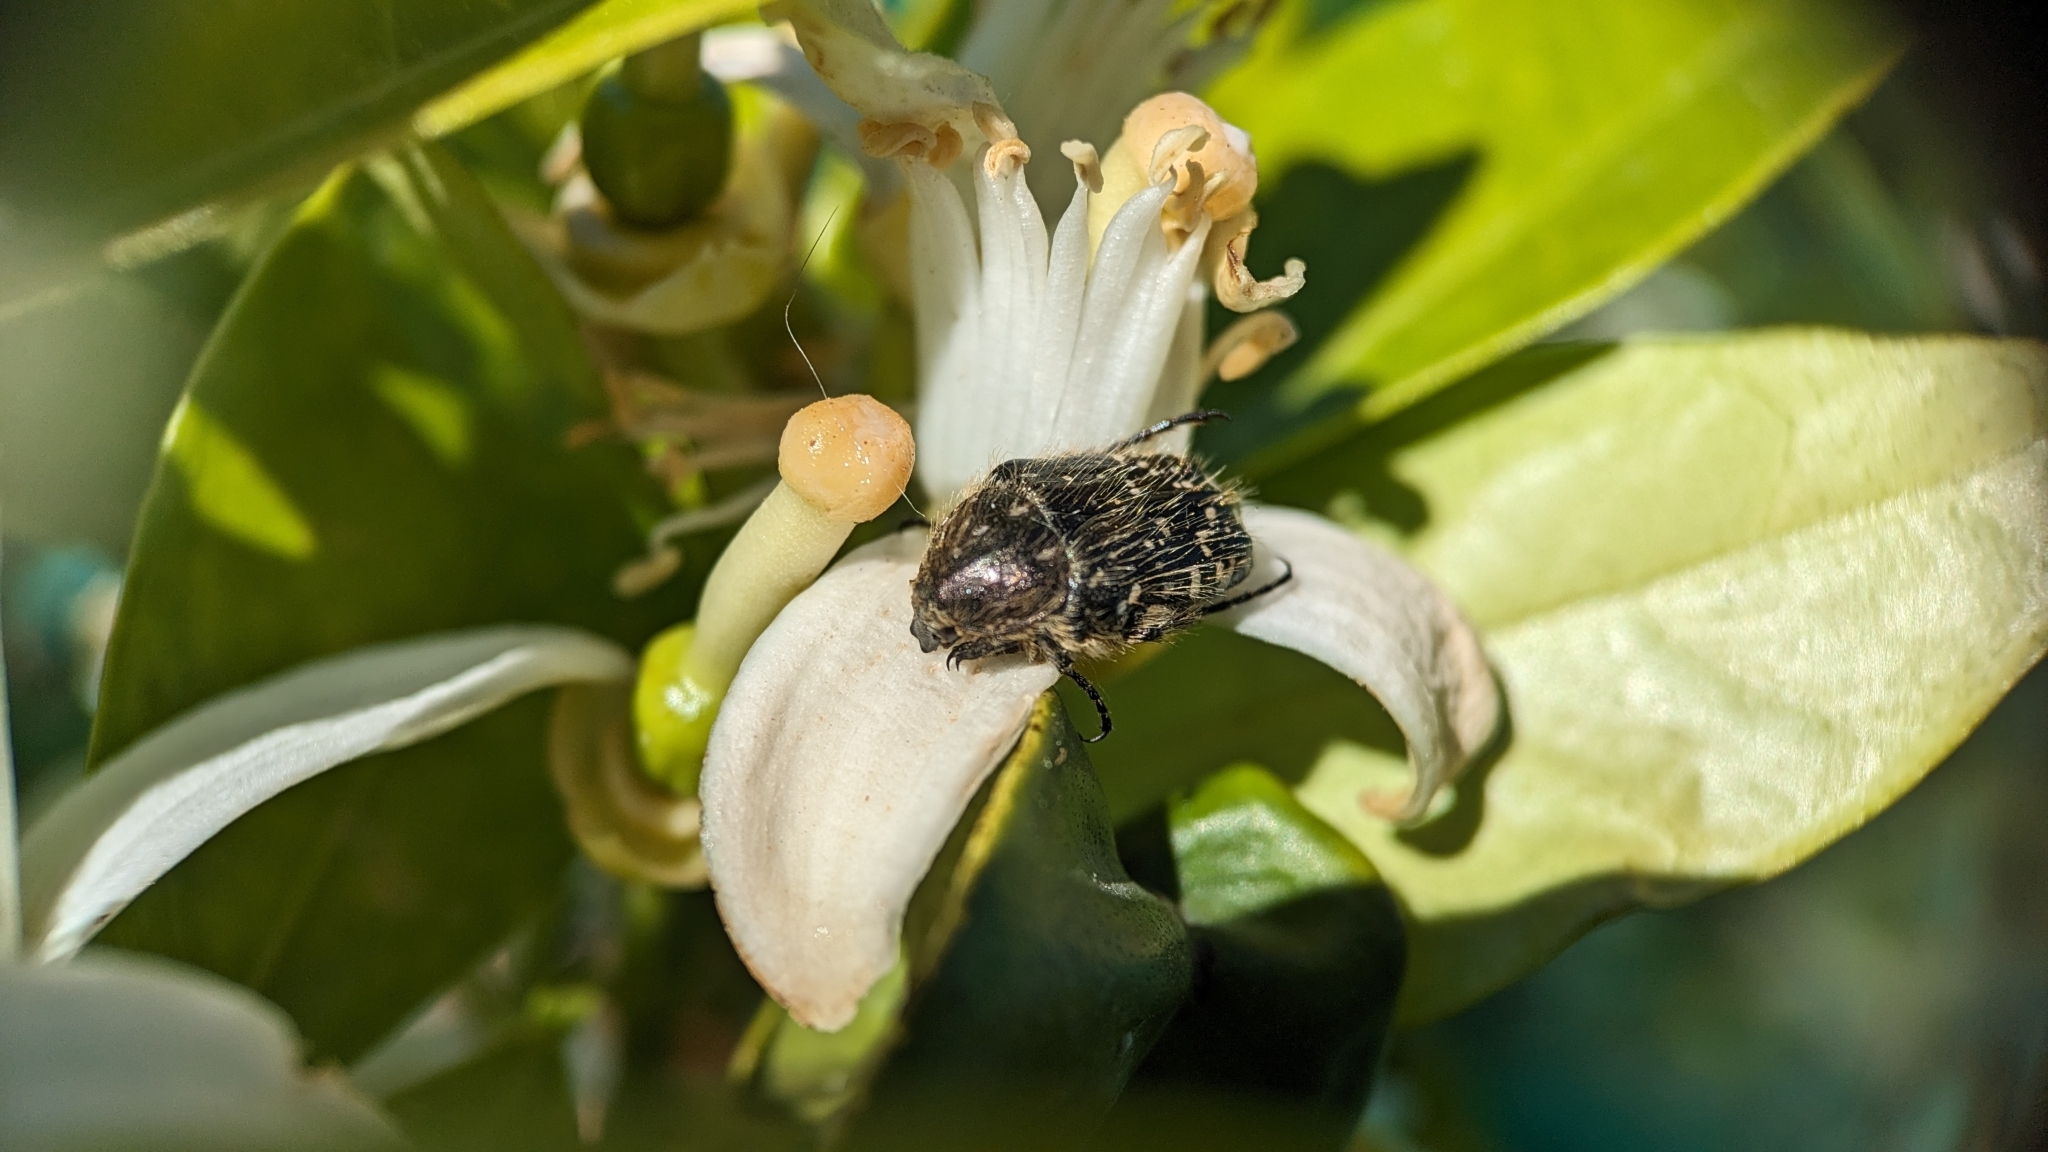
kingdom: Animalia
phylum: Arthropoda
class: Insecta
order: Coleoptera
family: Scarabaeidae
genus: Oxythyrea
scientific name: Oxythyrea funesta
